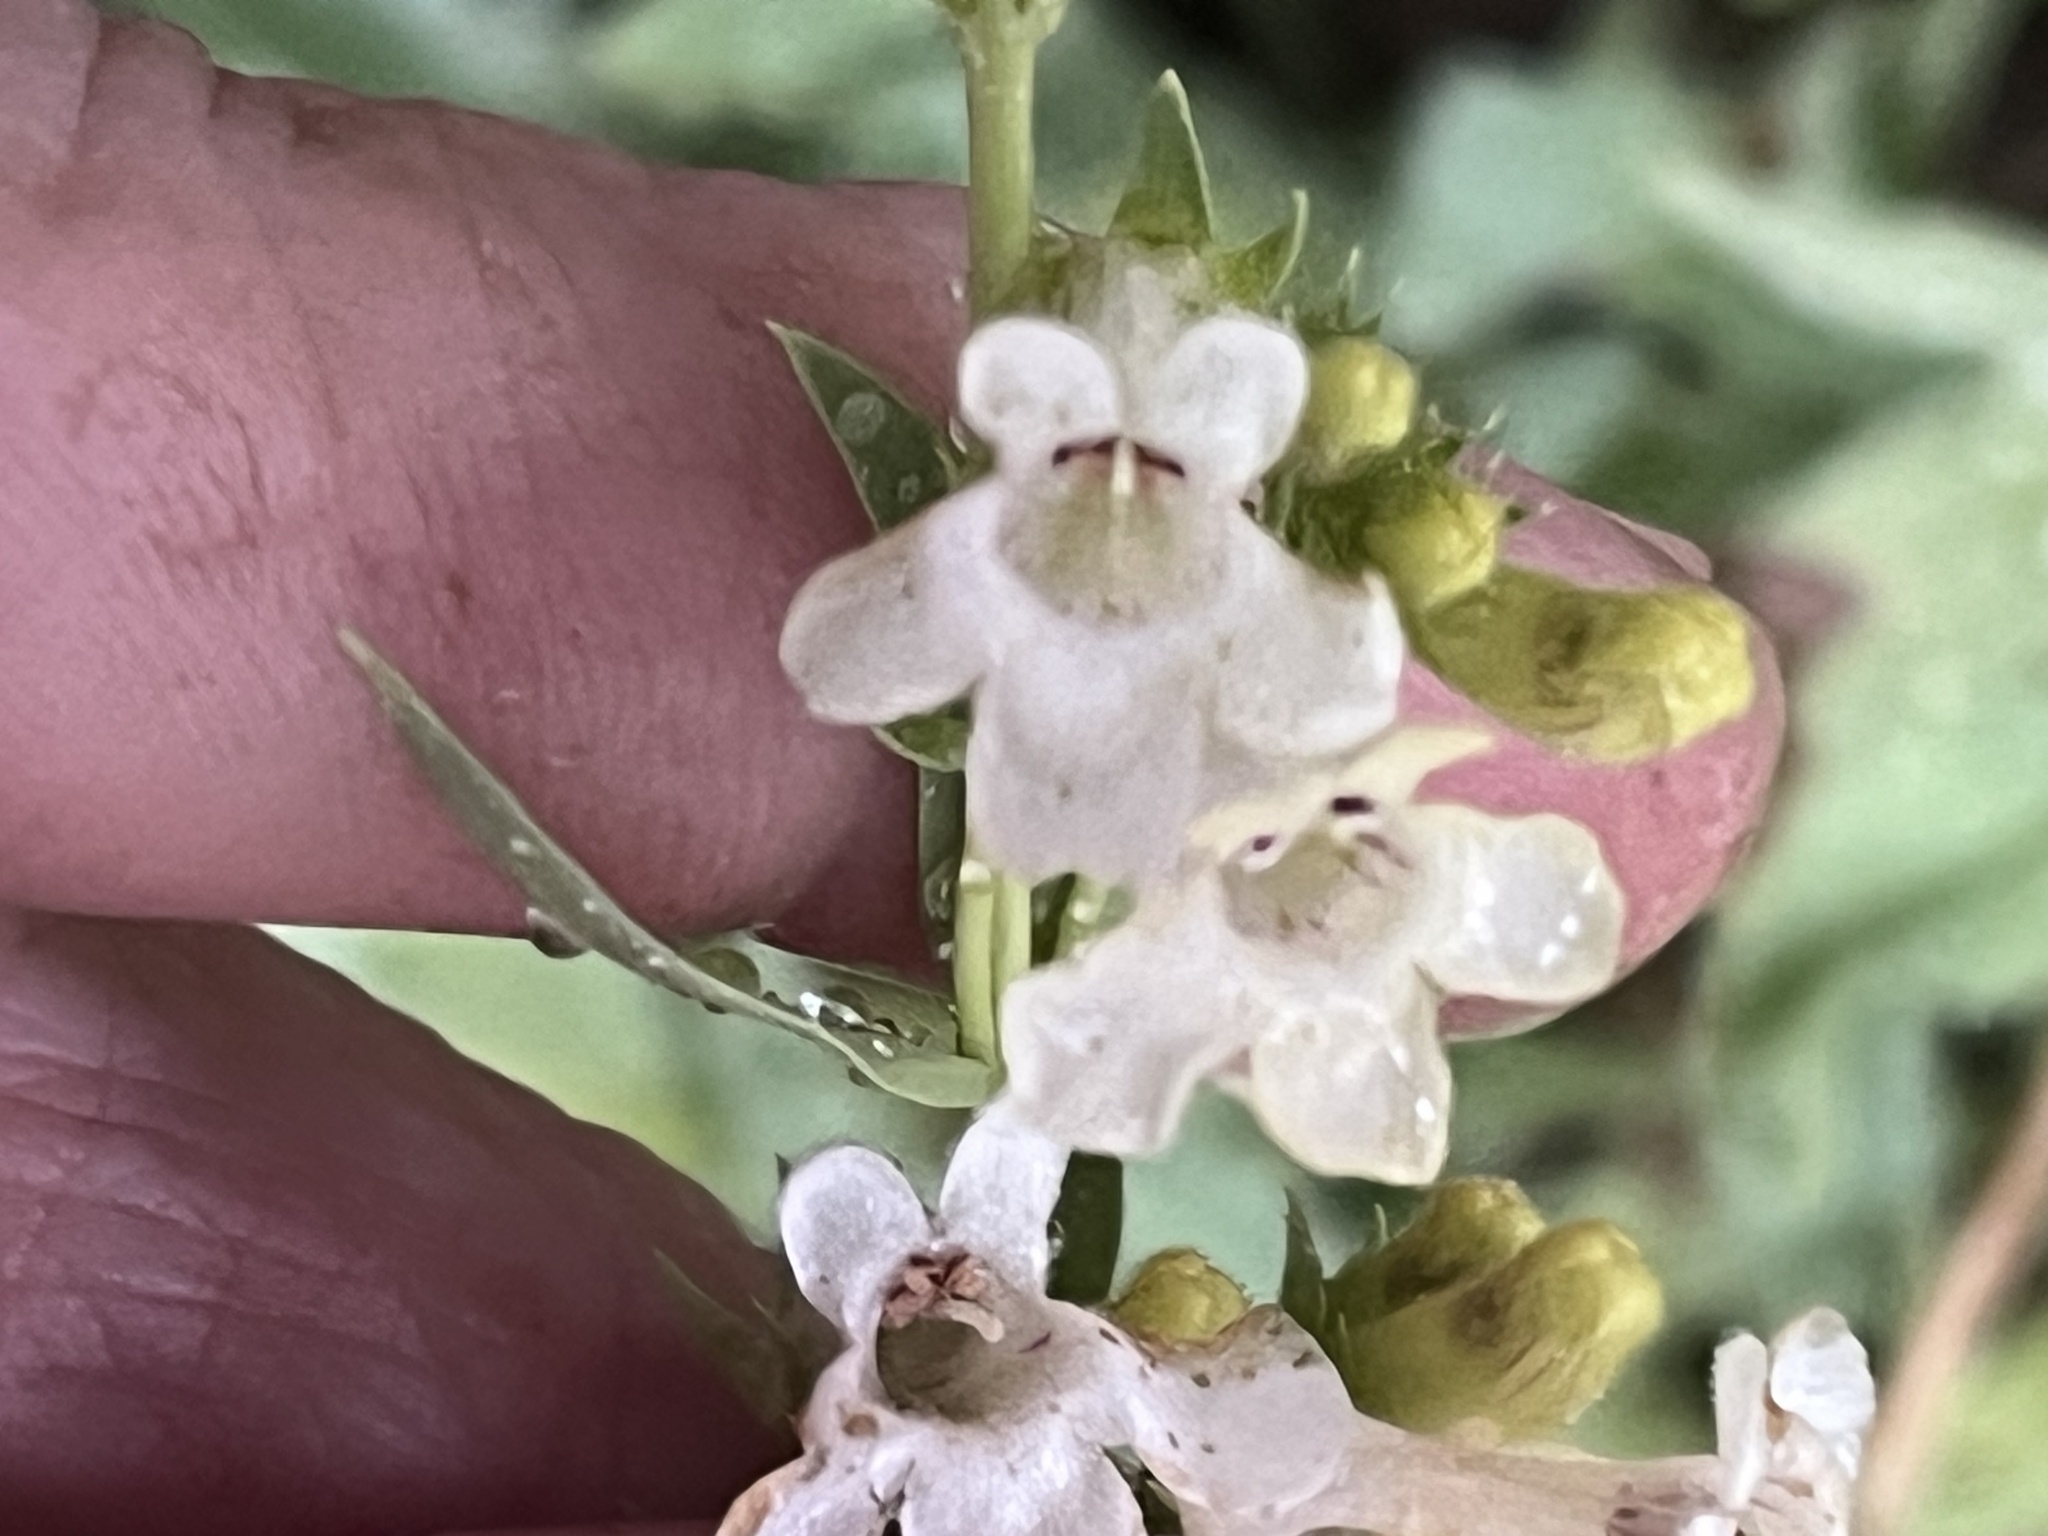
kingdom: Plantae
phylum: Tracheophyta
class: Magnoliopsida
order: Lamiales
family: Plantaginaceae
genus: Penstemon
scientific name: Penstemon deustus
